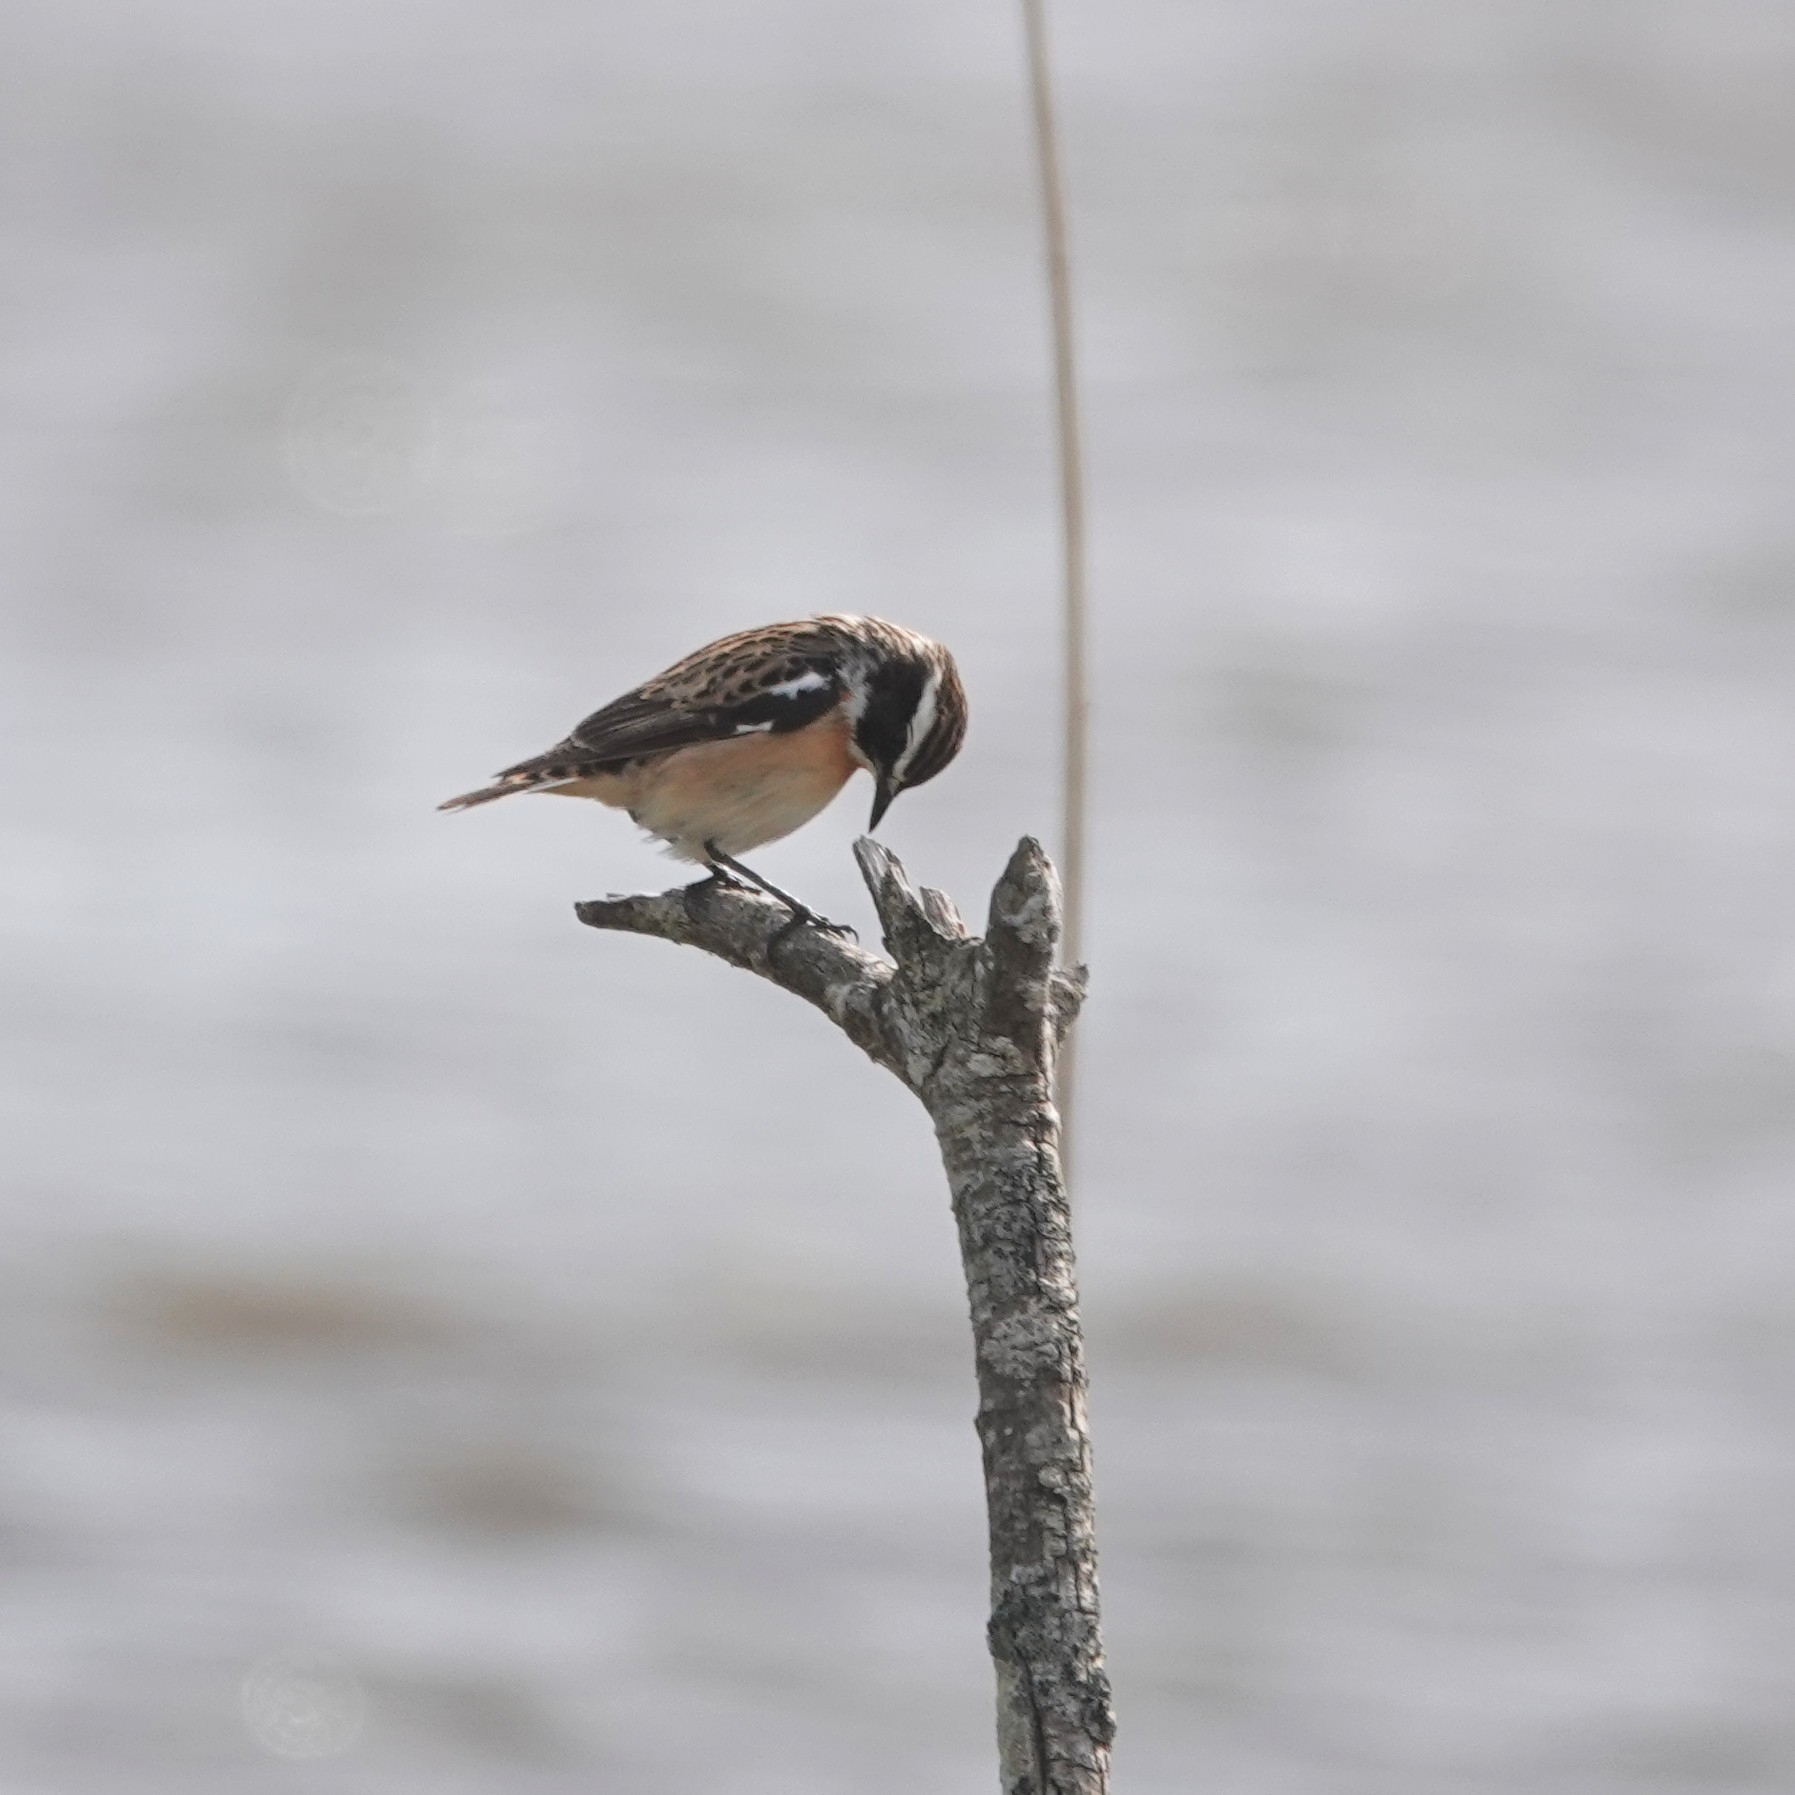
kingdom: Animalia
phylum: Chordata
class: Aves
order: Passeriformes
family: Muscicapidae
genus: Saxicola
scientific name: Saxicola rubetra
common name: Whinchat
